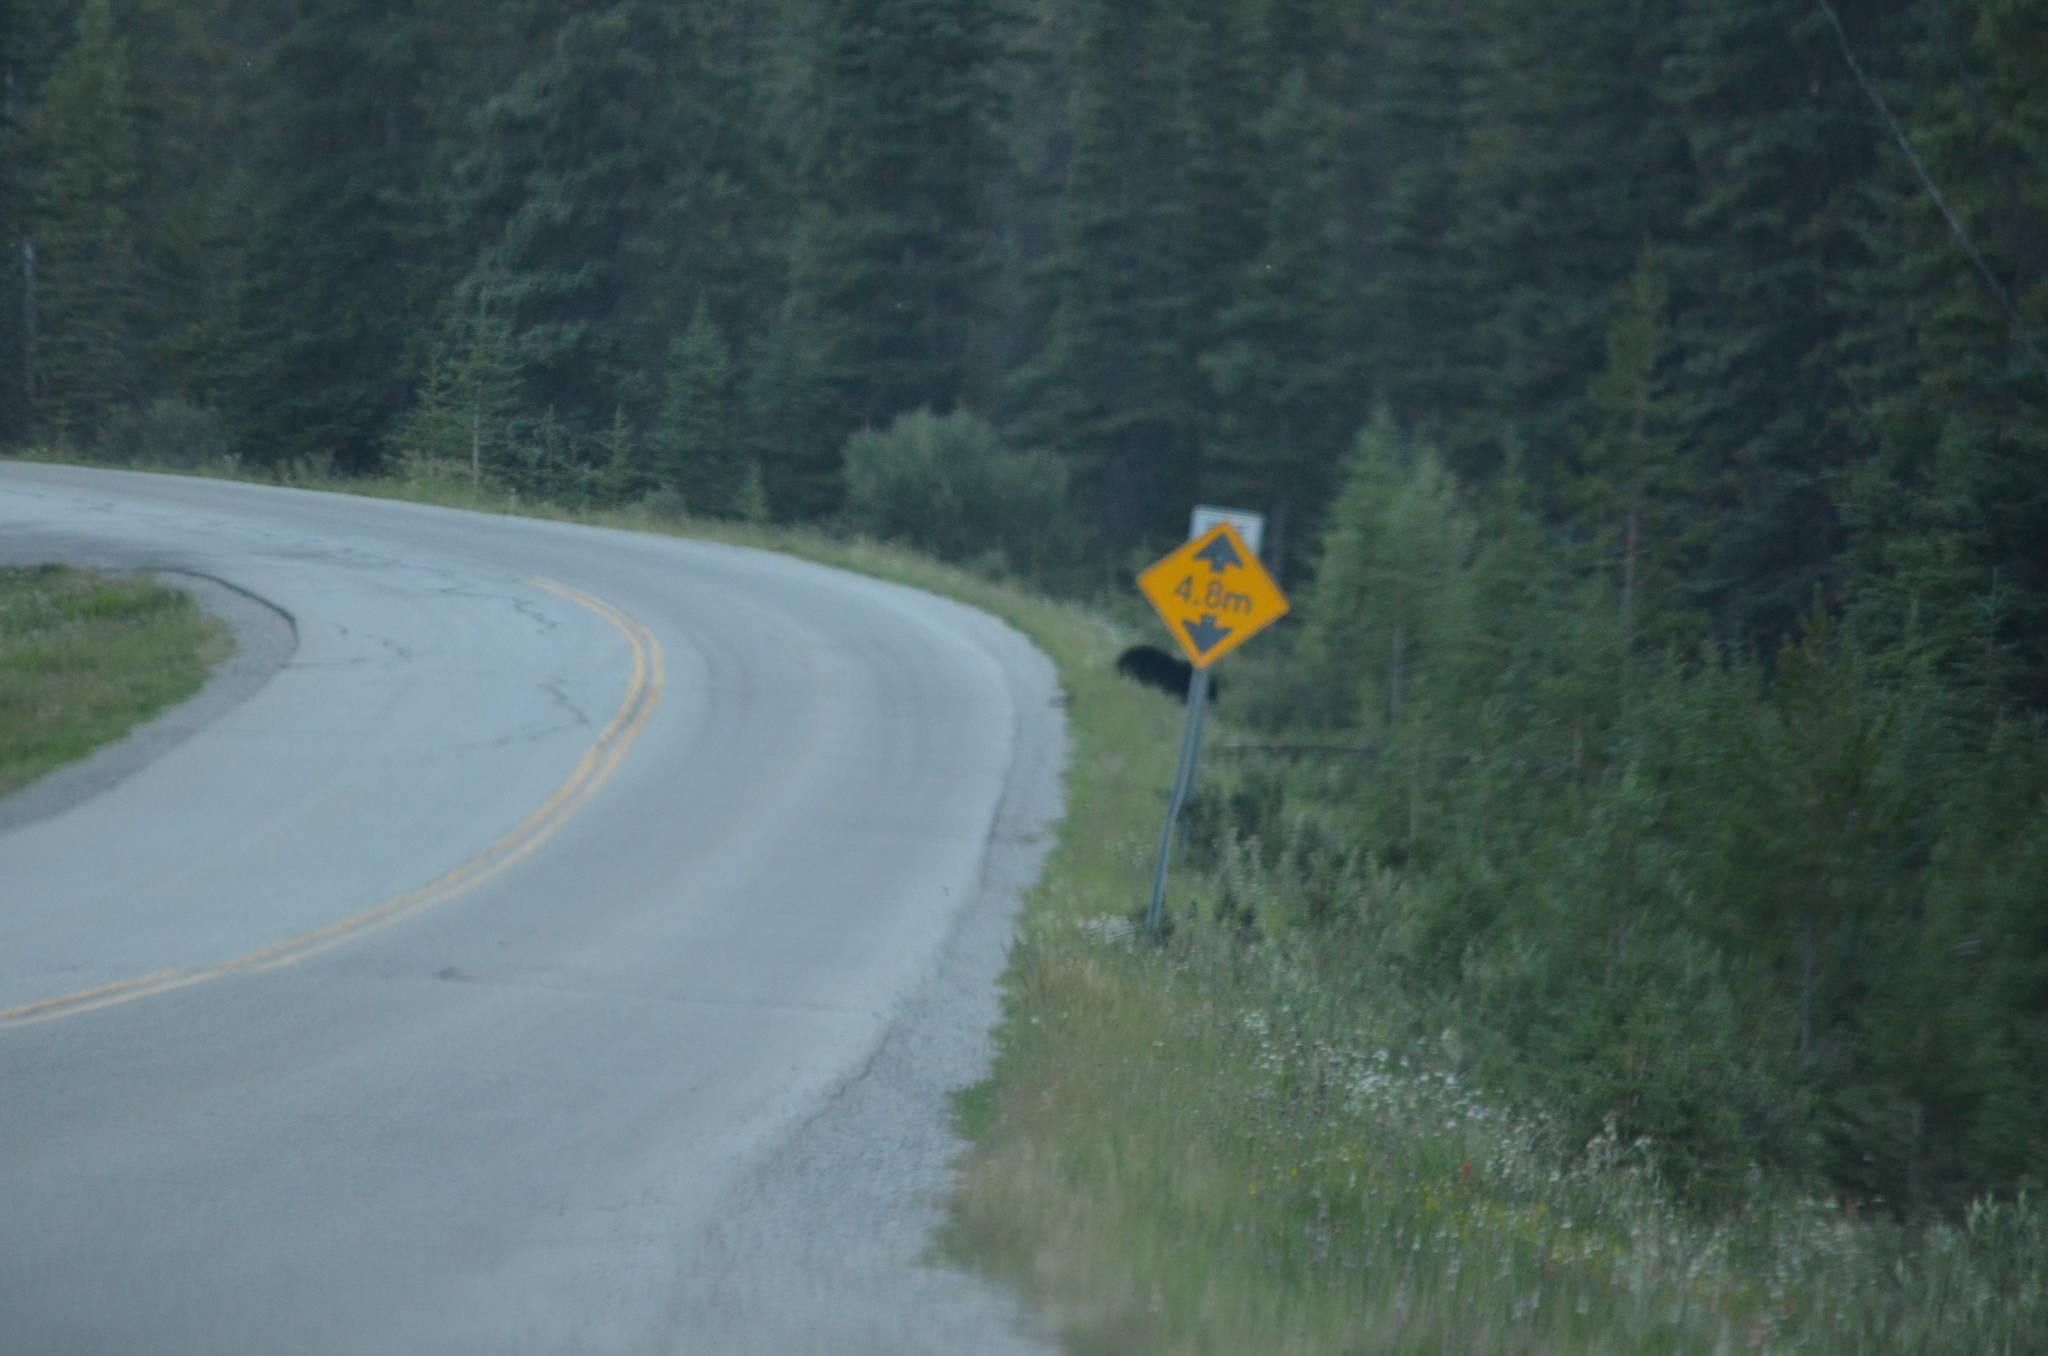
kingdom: Animalia
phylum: Chordata
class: Mammalia
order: Carnivora
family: Ursidae
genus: Ursus
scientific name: Ursus americanus
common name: American black bear
